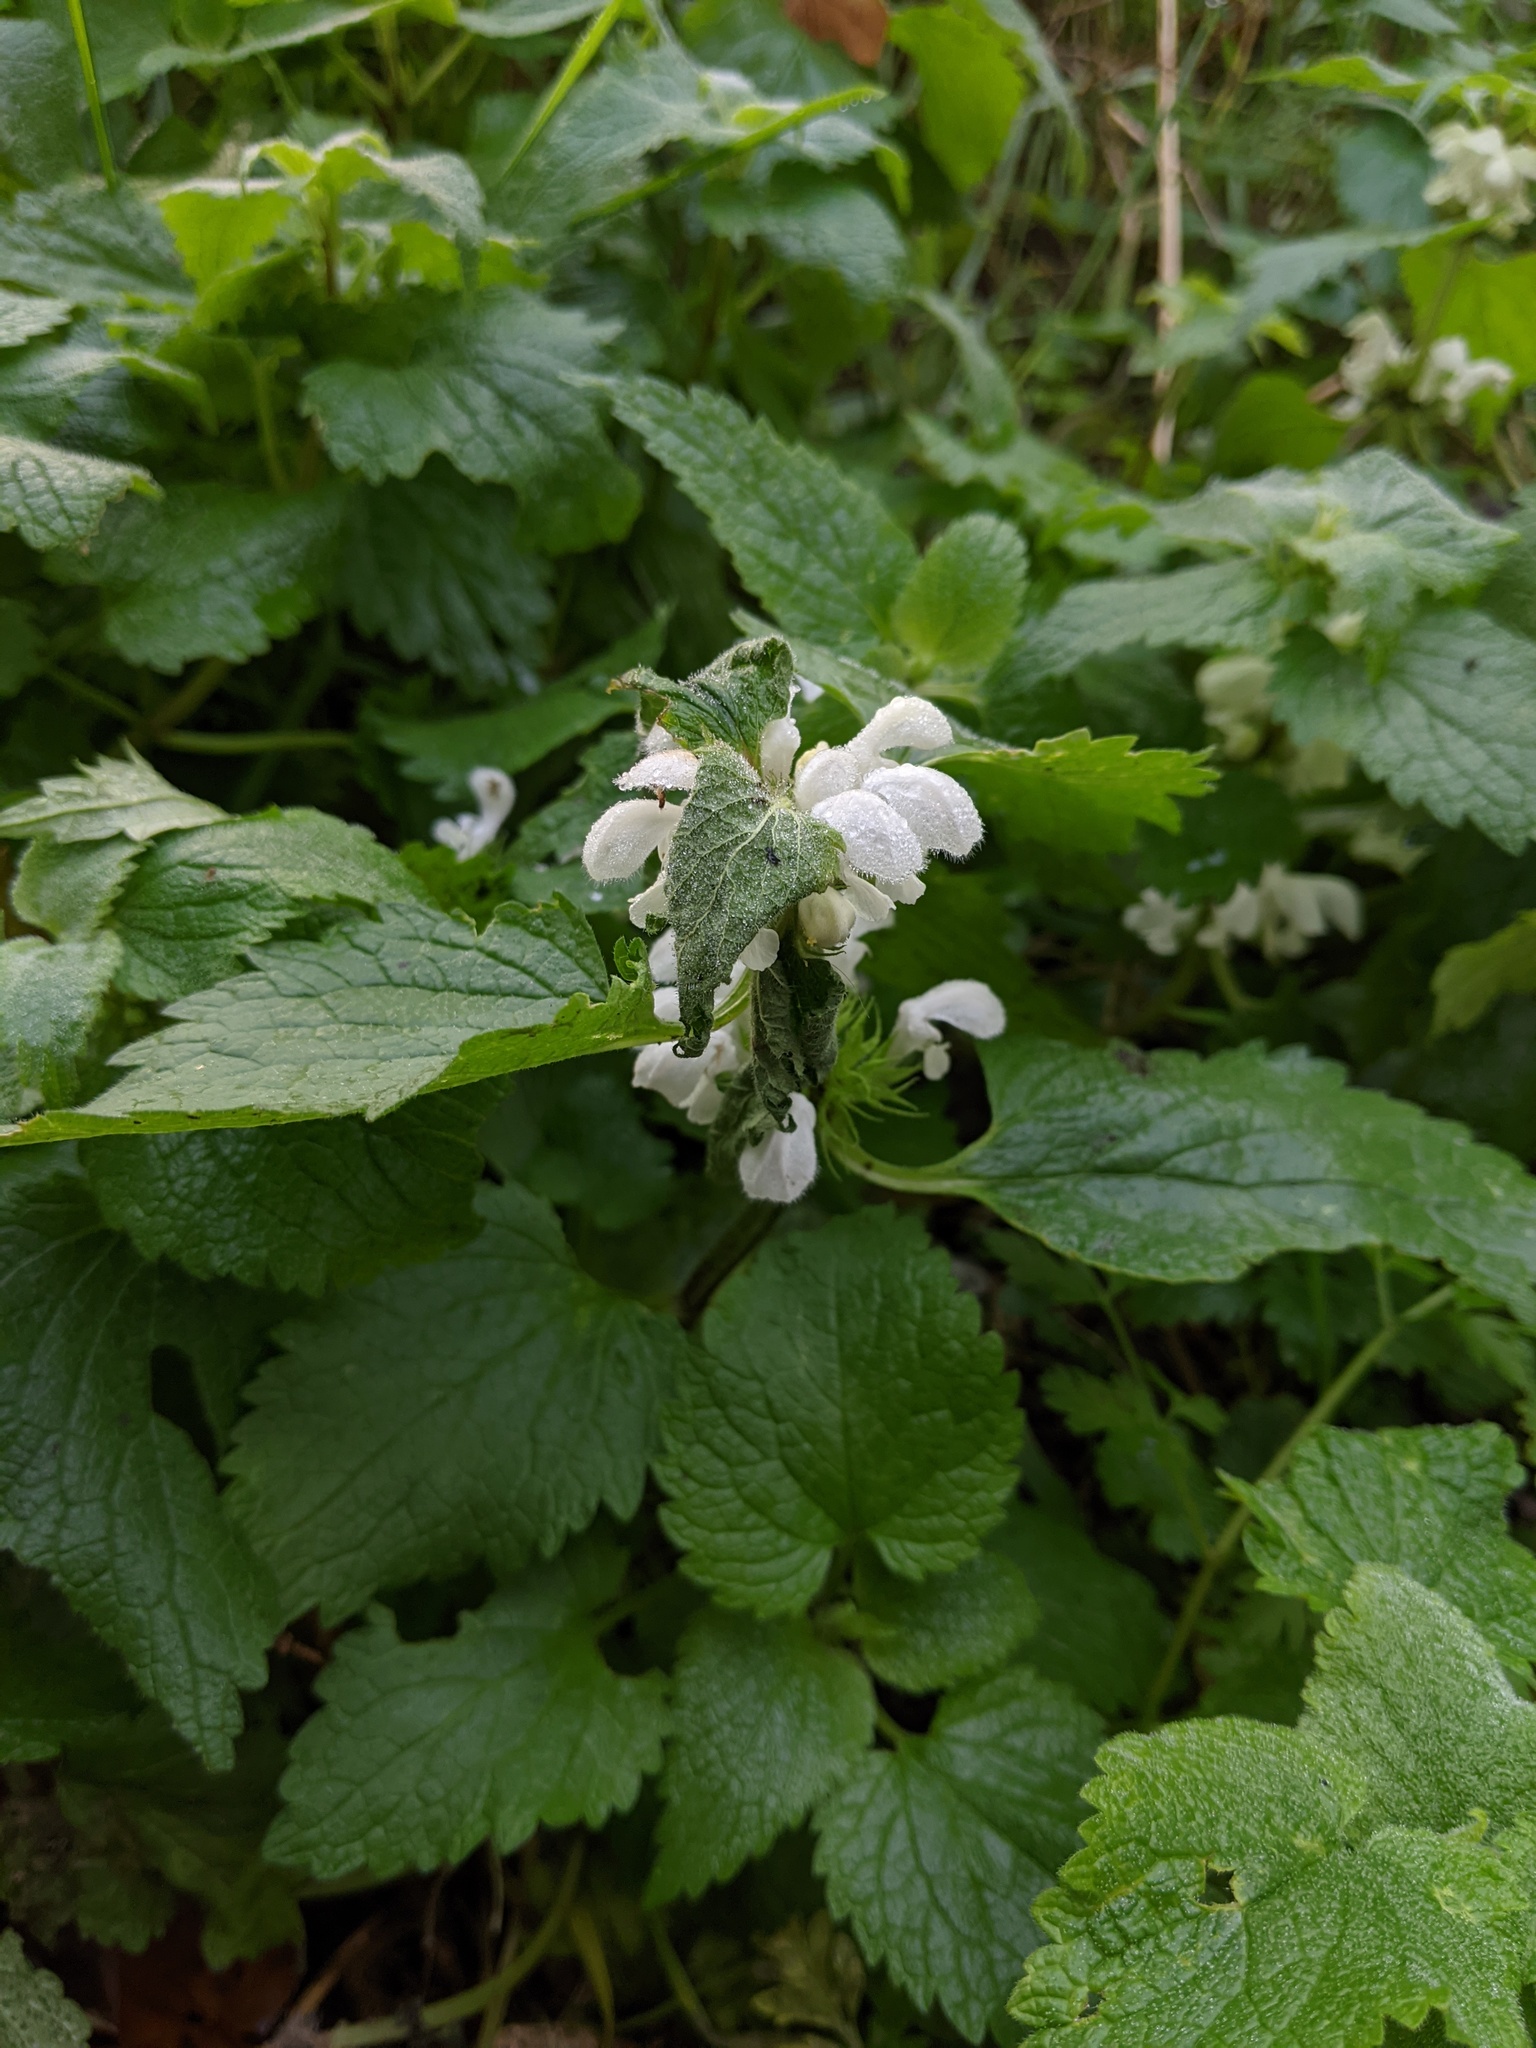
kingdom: Plantae
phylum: Tracheophyta
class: Magnoliopsida
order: Lamiales
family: Lamiaceae
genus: Lamium
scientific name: Lamium album
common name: White dead-nettle
